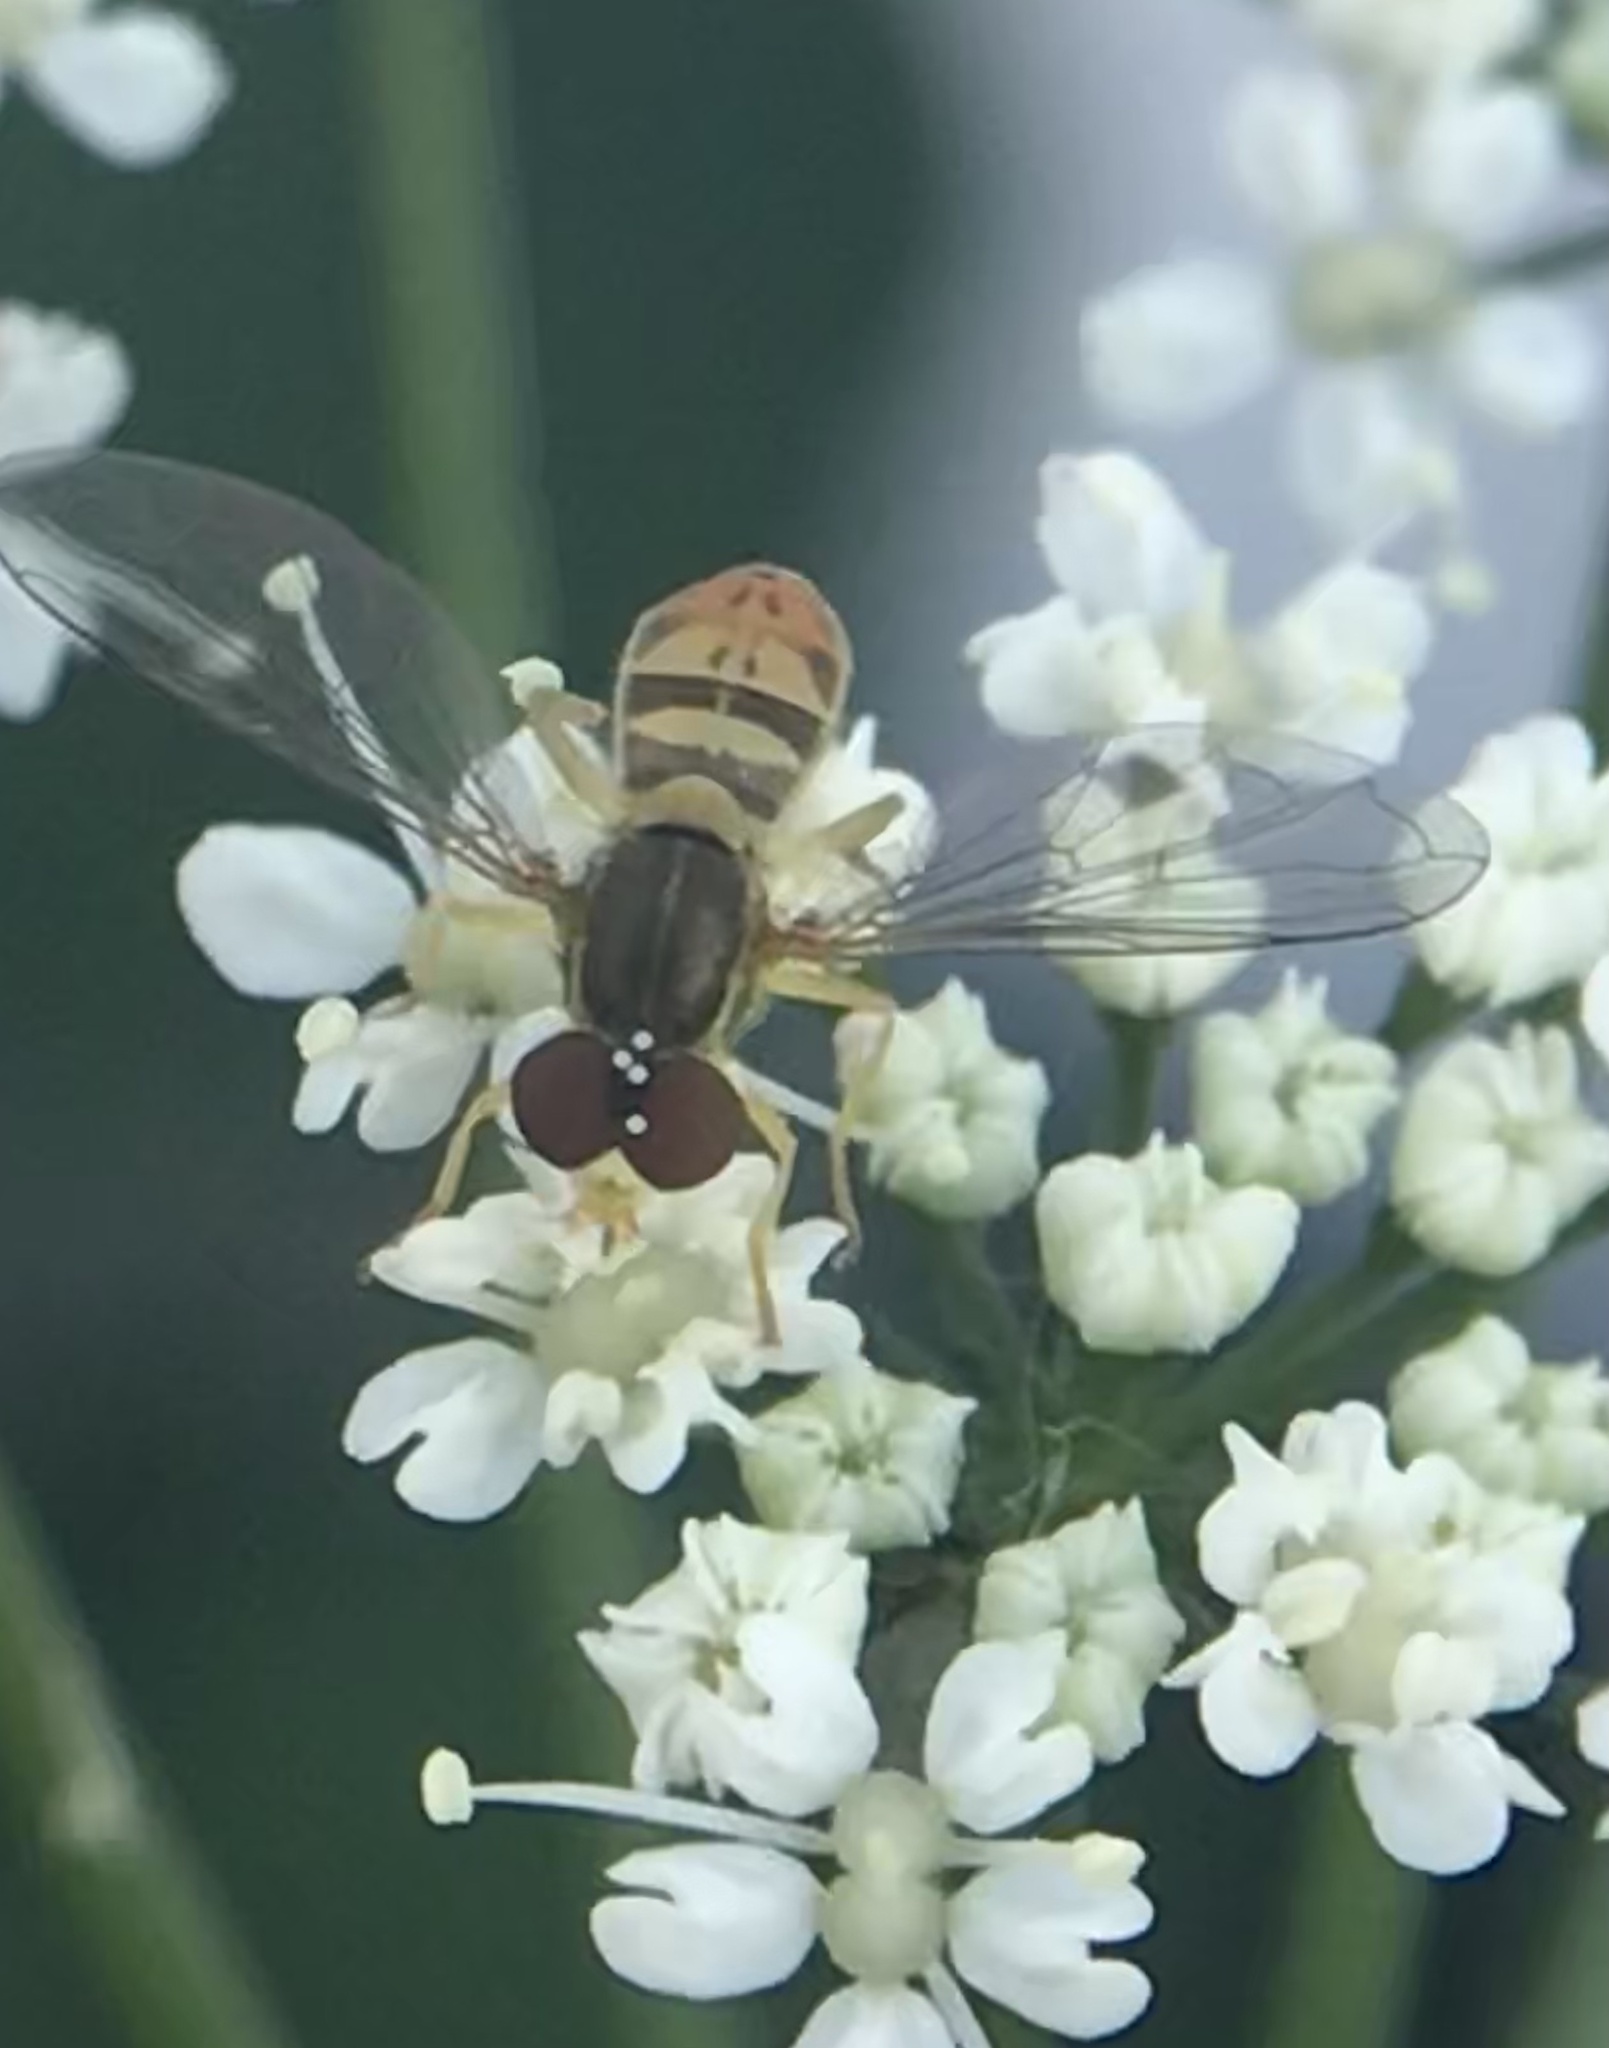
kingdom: Animalia
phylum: Arthropoda
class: Insecta
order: Diptera
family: Syrphidae
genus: Toxomerus
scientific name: Toxomerus marginatus
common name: Syrphid fly
